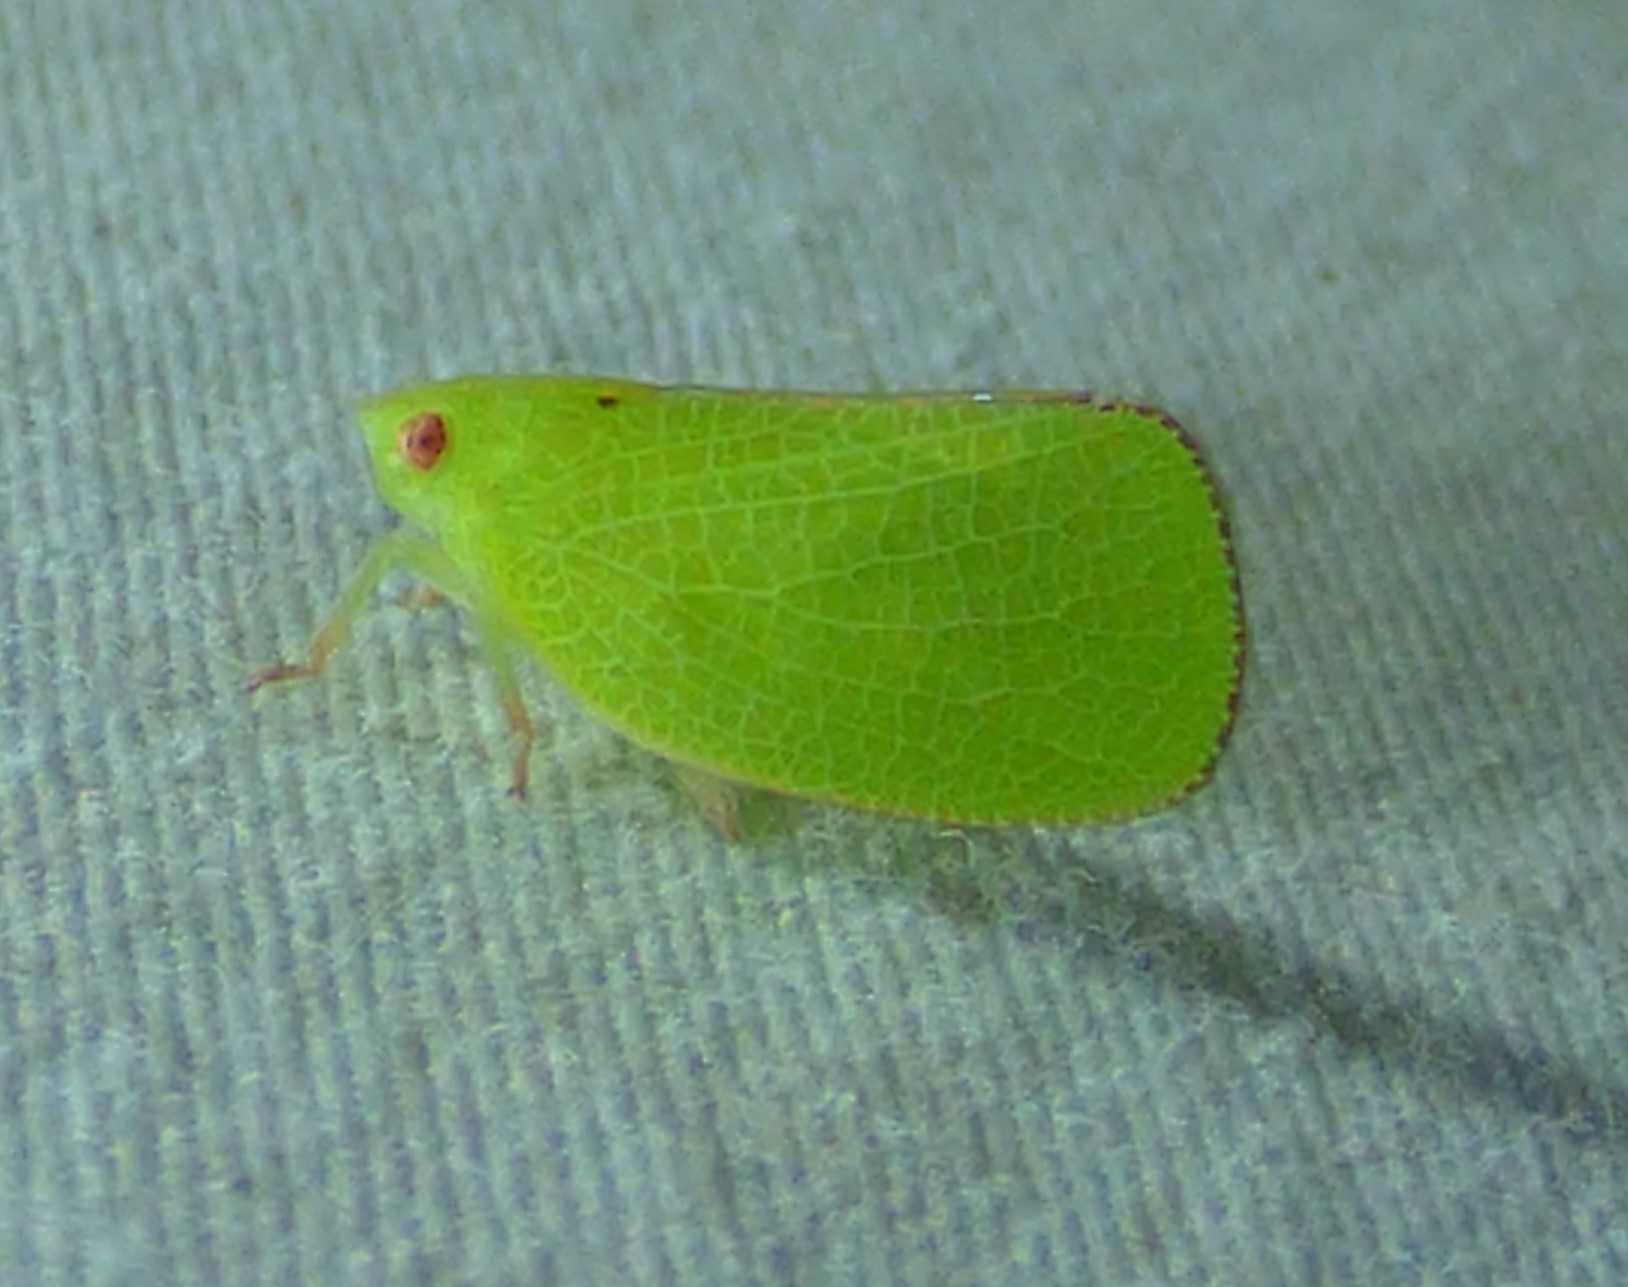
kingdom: Animalia
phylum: Arthropoda
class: Insecta
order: Hemiptera
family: Acanaloniidae
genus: Acanalonia
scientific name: Acanalonia conica
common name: Green cone-headed planthopper
